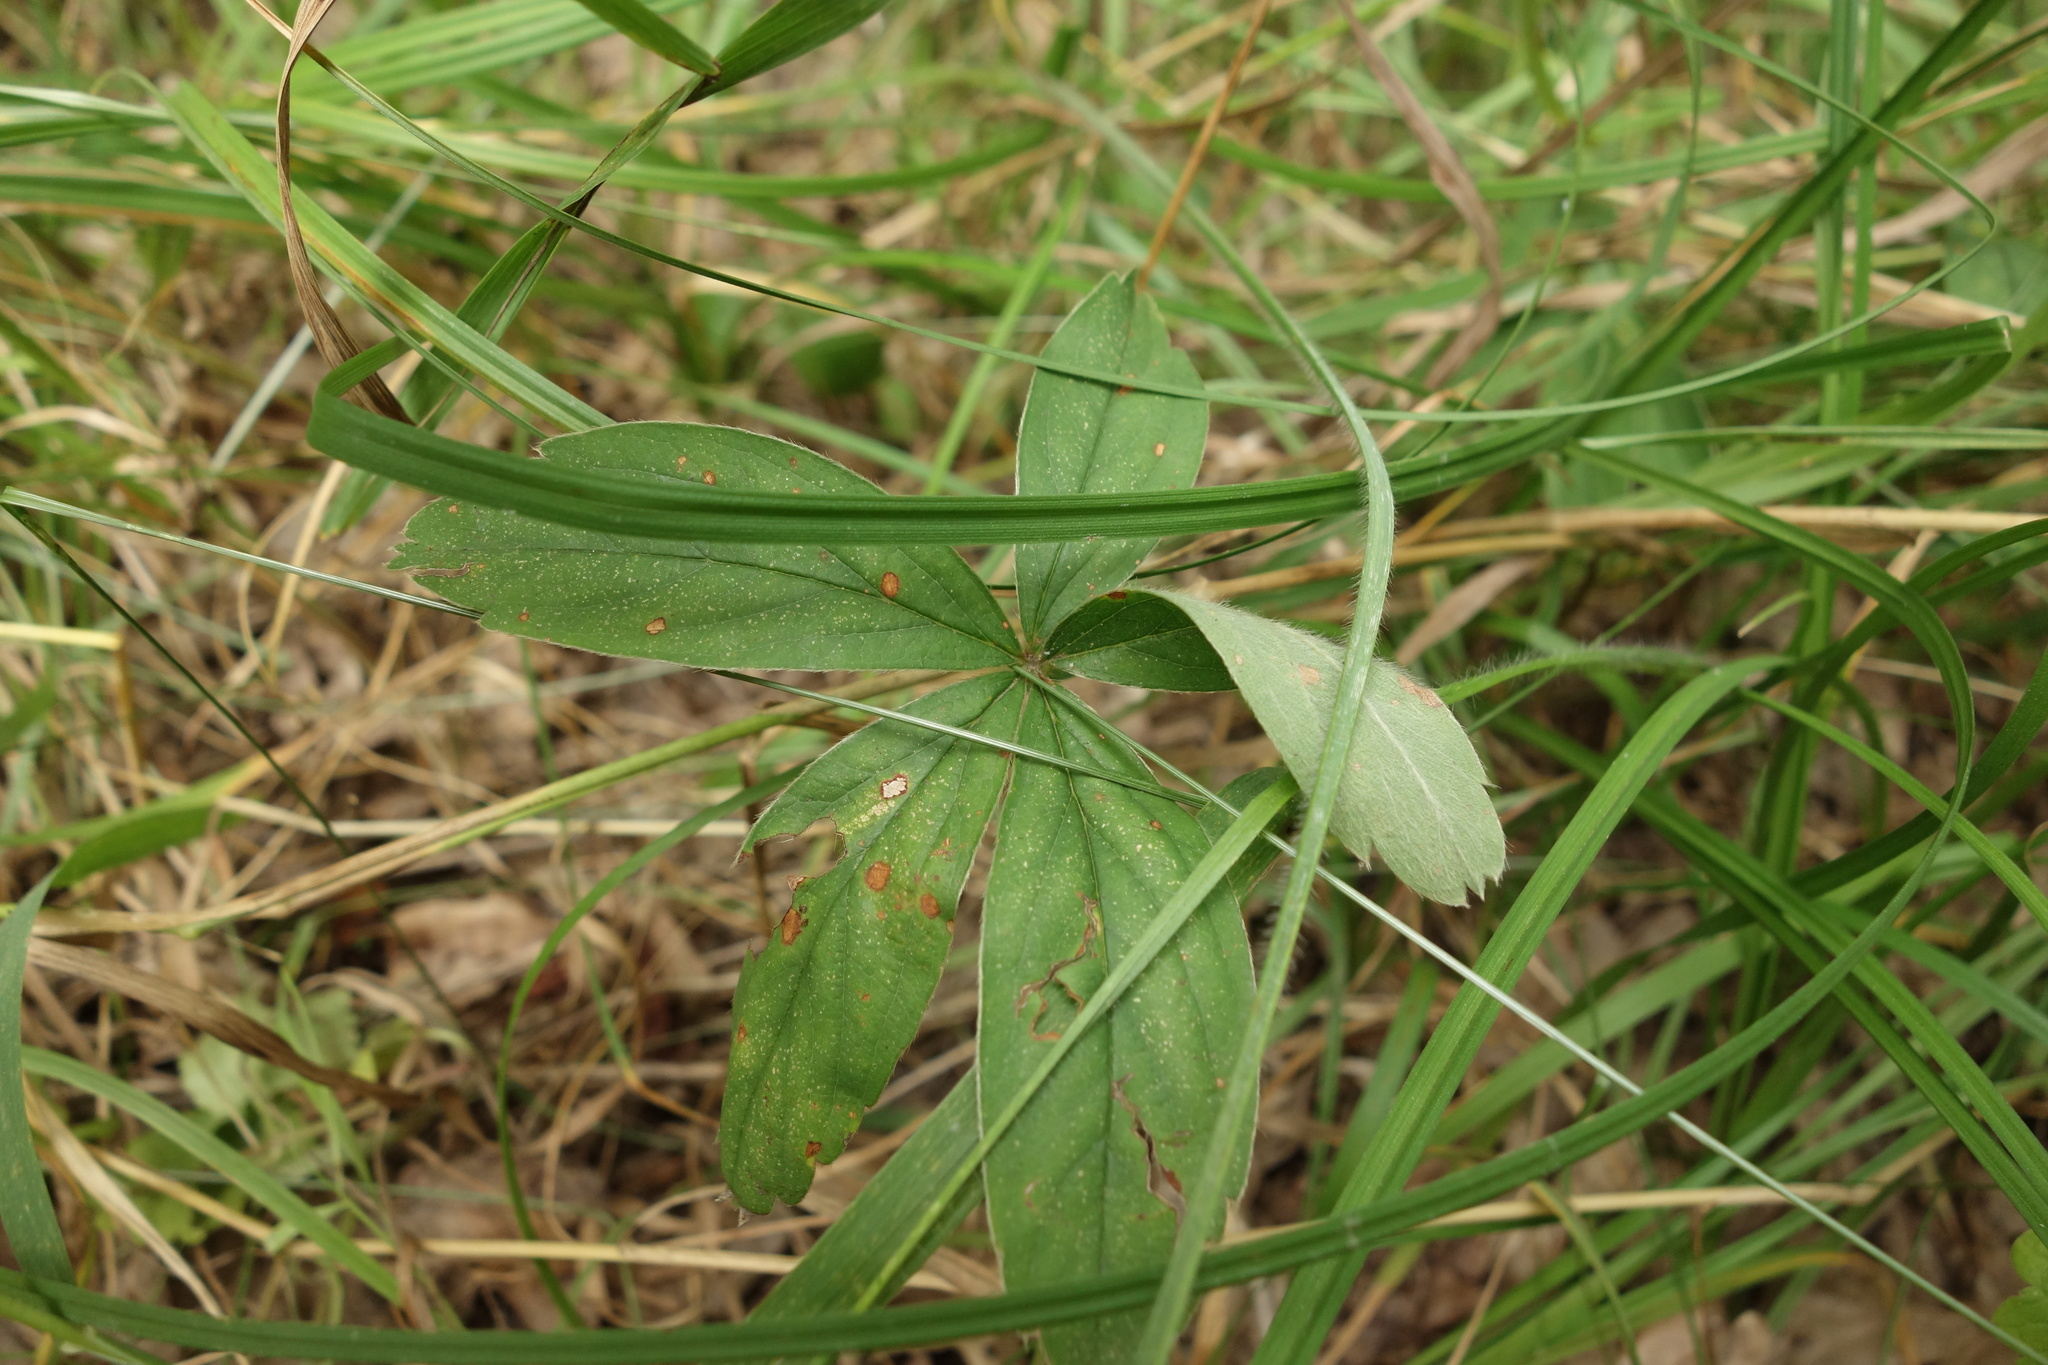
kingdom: Plantae
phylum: Tracheophyta
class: Magnoliopsida
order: Rosales
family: Rosaceae
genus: Potentilla
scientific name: Potentilla alba
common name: White cinquefoil
